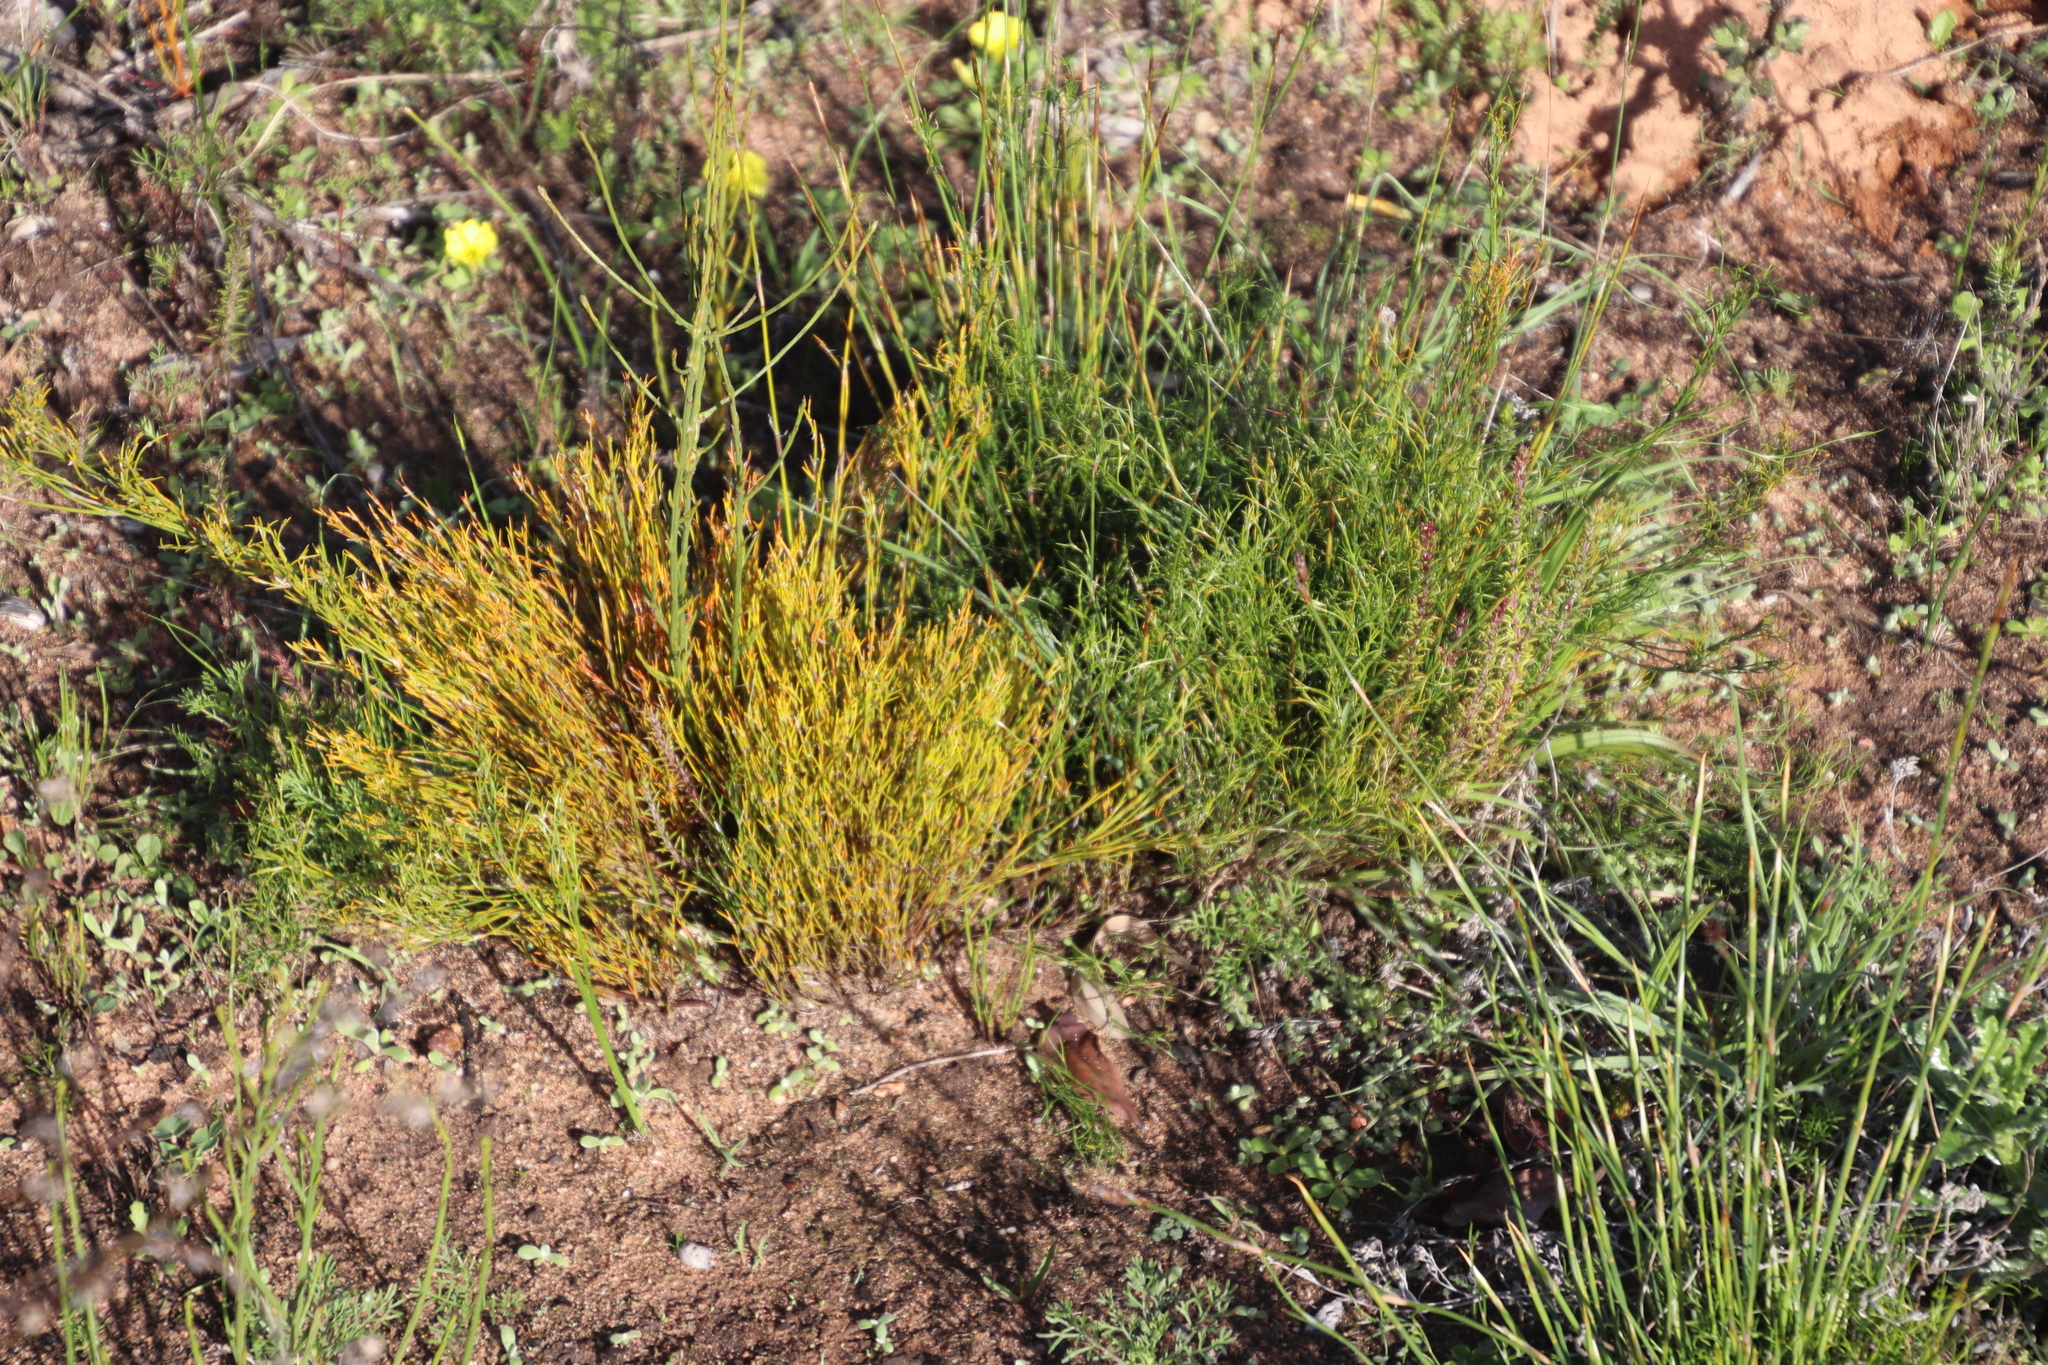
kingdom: Plantae
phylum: Tracheophyta
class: Liliopsida
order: Poales
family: Restionaceae
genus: Restio
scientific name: Restio capensis
